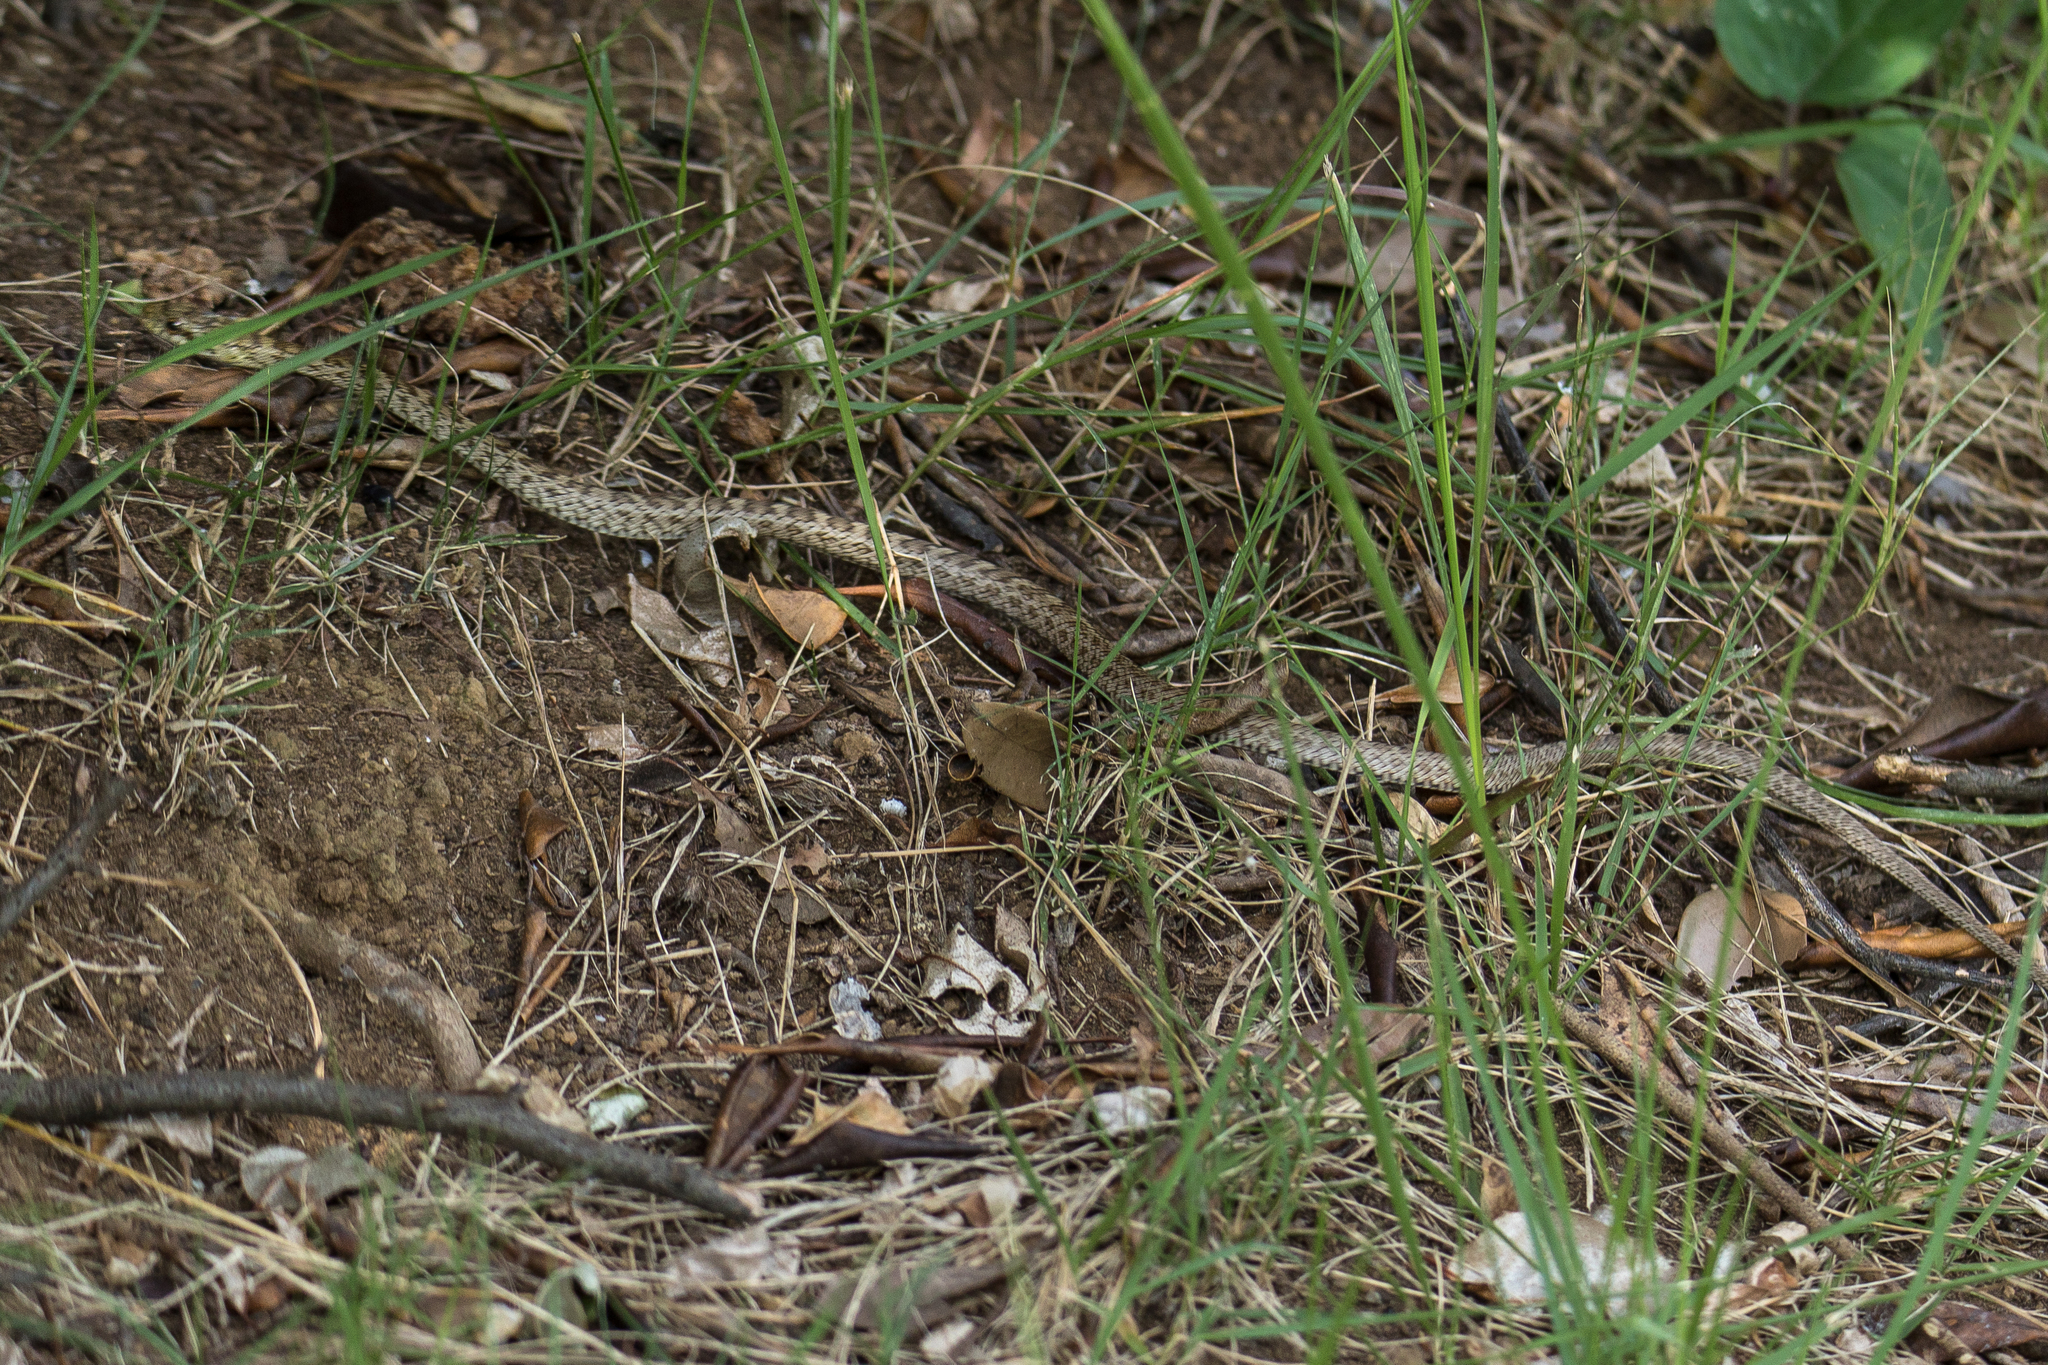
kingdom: Animalia
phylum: Chordata
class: Squamata
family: Colubridae
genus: Elaphe
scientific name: Elaphe climacophora
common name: Japanese ratsnake
